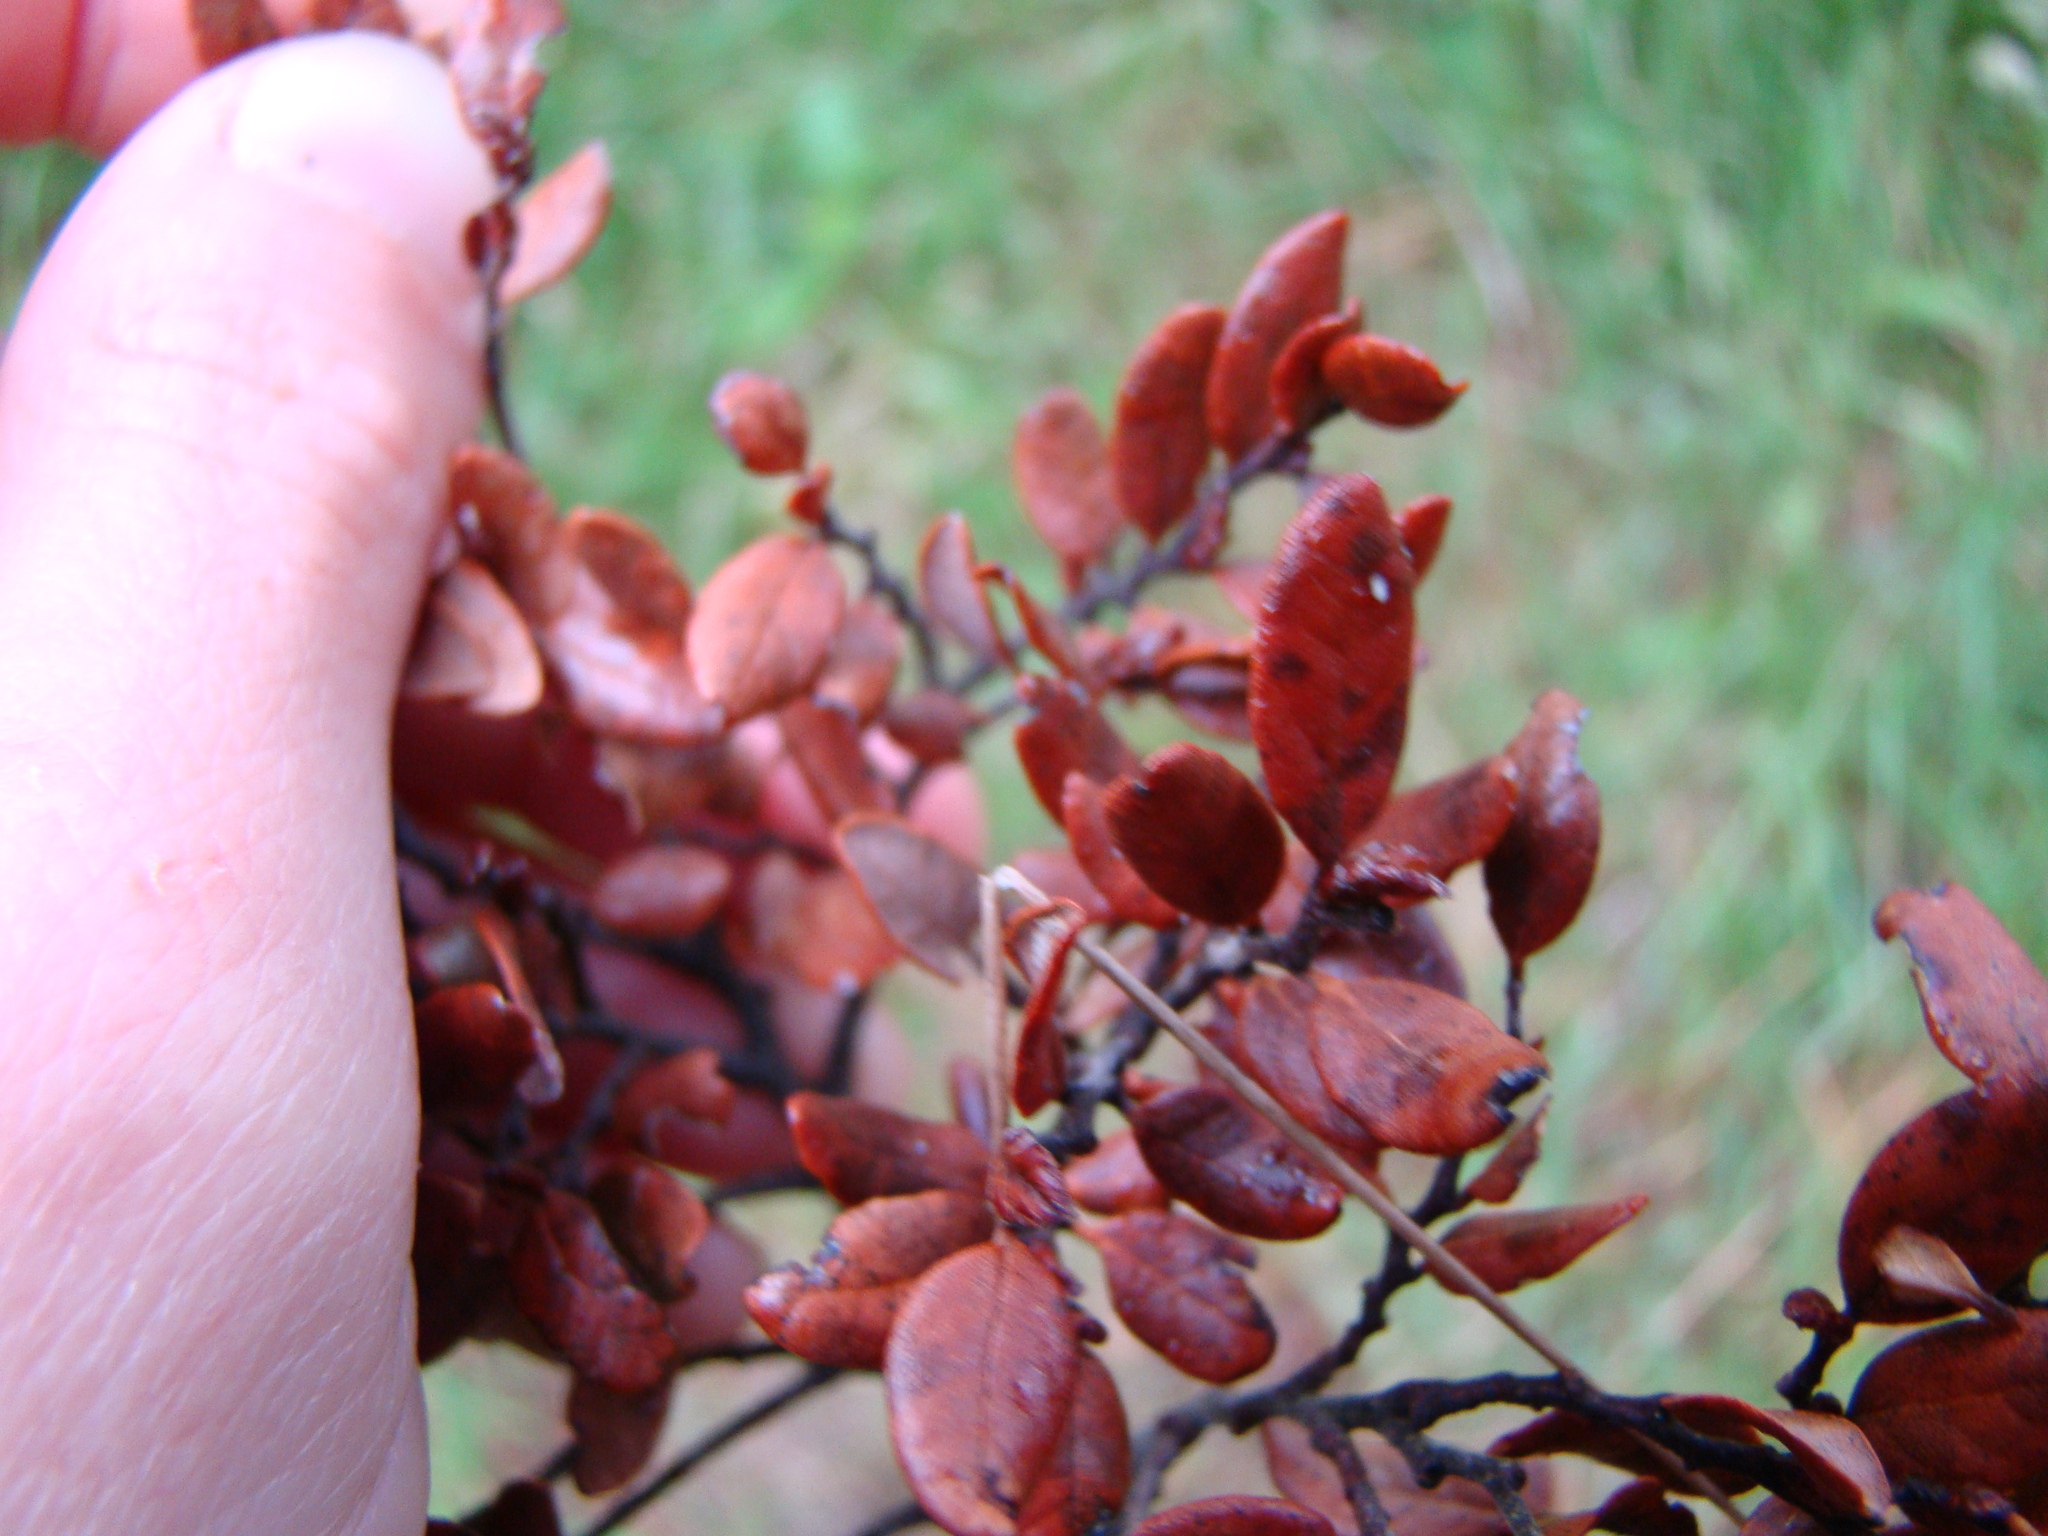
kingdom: Plantae
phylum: Tracheophyta
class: Magnoliopsida
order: Fagales
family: Nothofagaceae
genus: Nothofagus
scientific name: Nothofagus solandri
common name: Black beech
